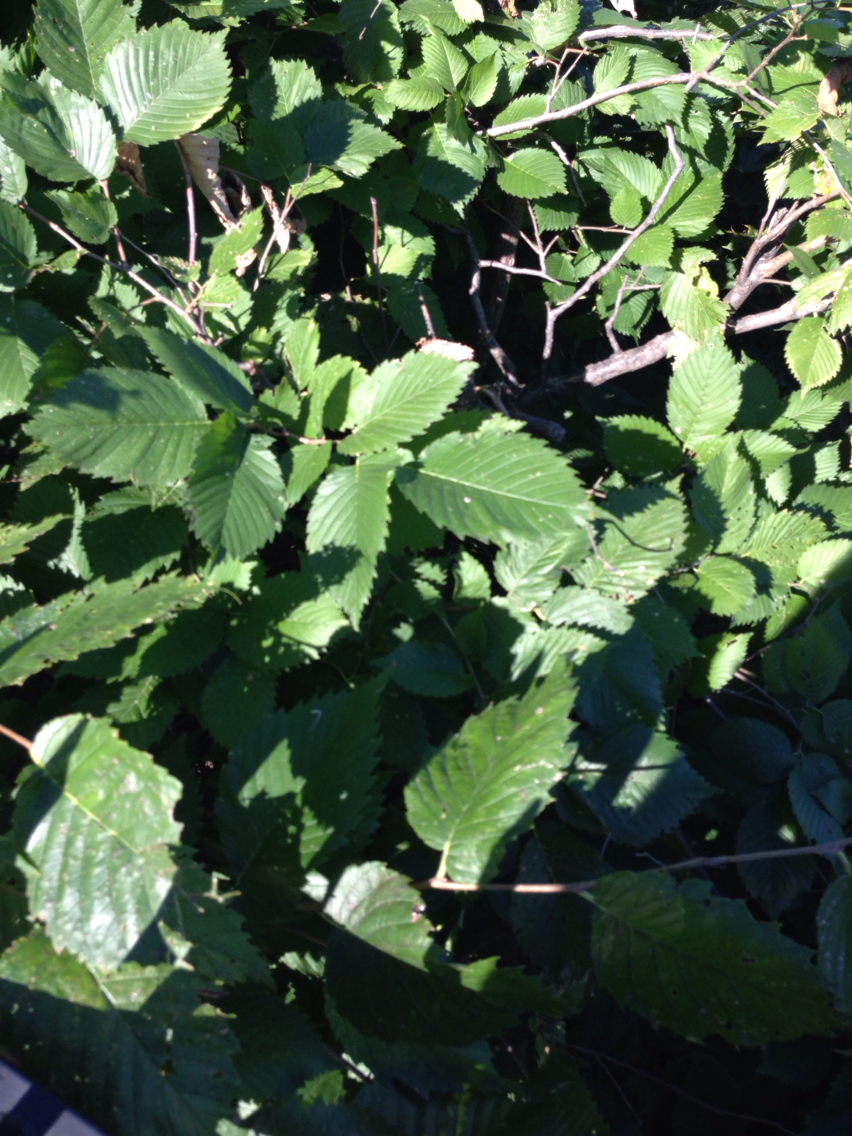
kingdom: Plantae
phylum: Tracheophyta
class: Magnoliopsida
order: Rosales
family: Ulmaceae
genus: Ulmus
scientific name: Ulmus americana
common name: American elm
